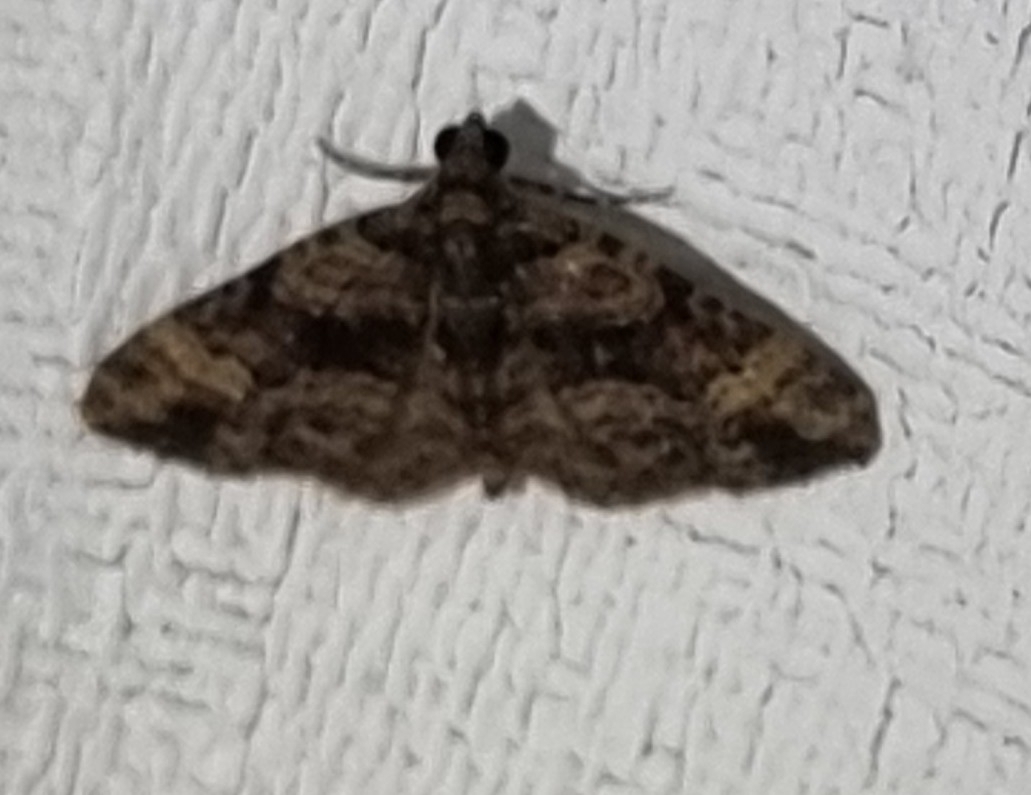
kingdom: Animalia
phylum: Arthropoda
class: Insecta
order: Lepidoptera
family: Geometridae
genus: Epyaxa
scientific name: Epyaxa sodaliata
